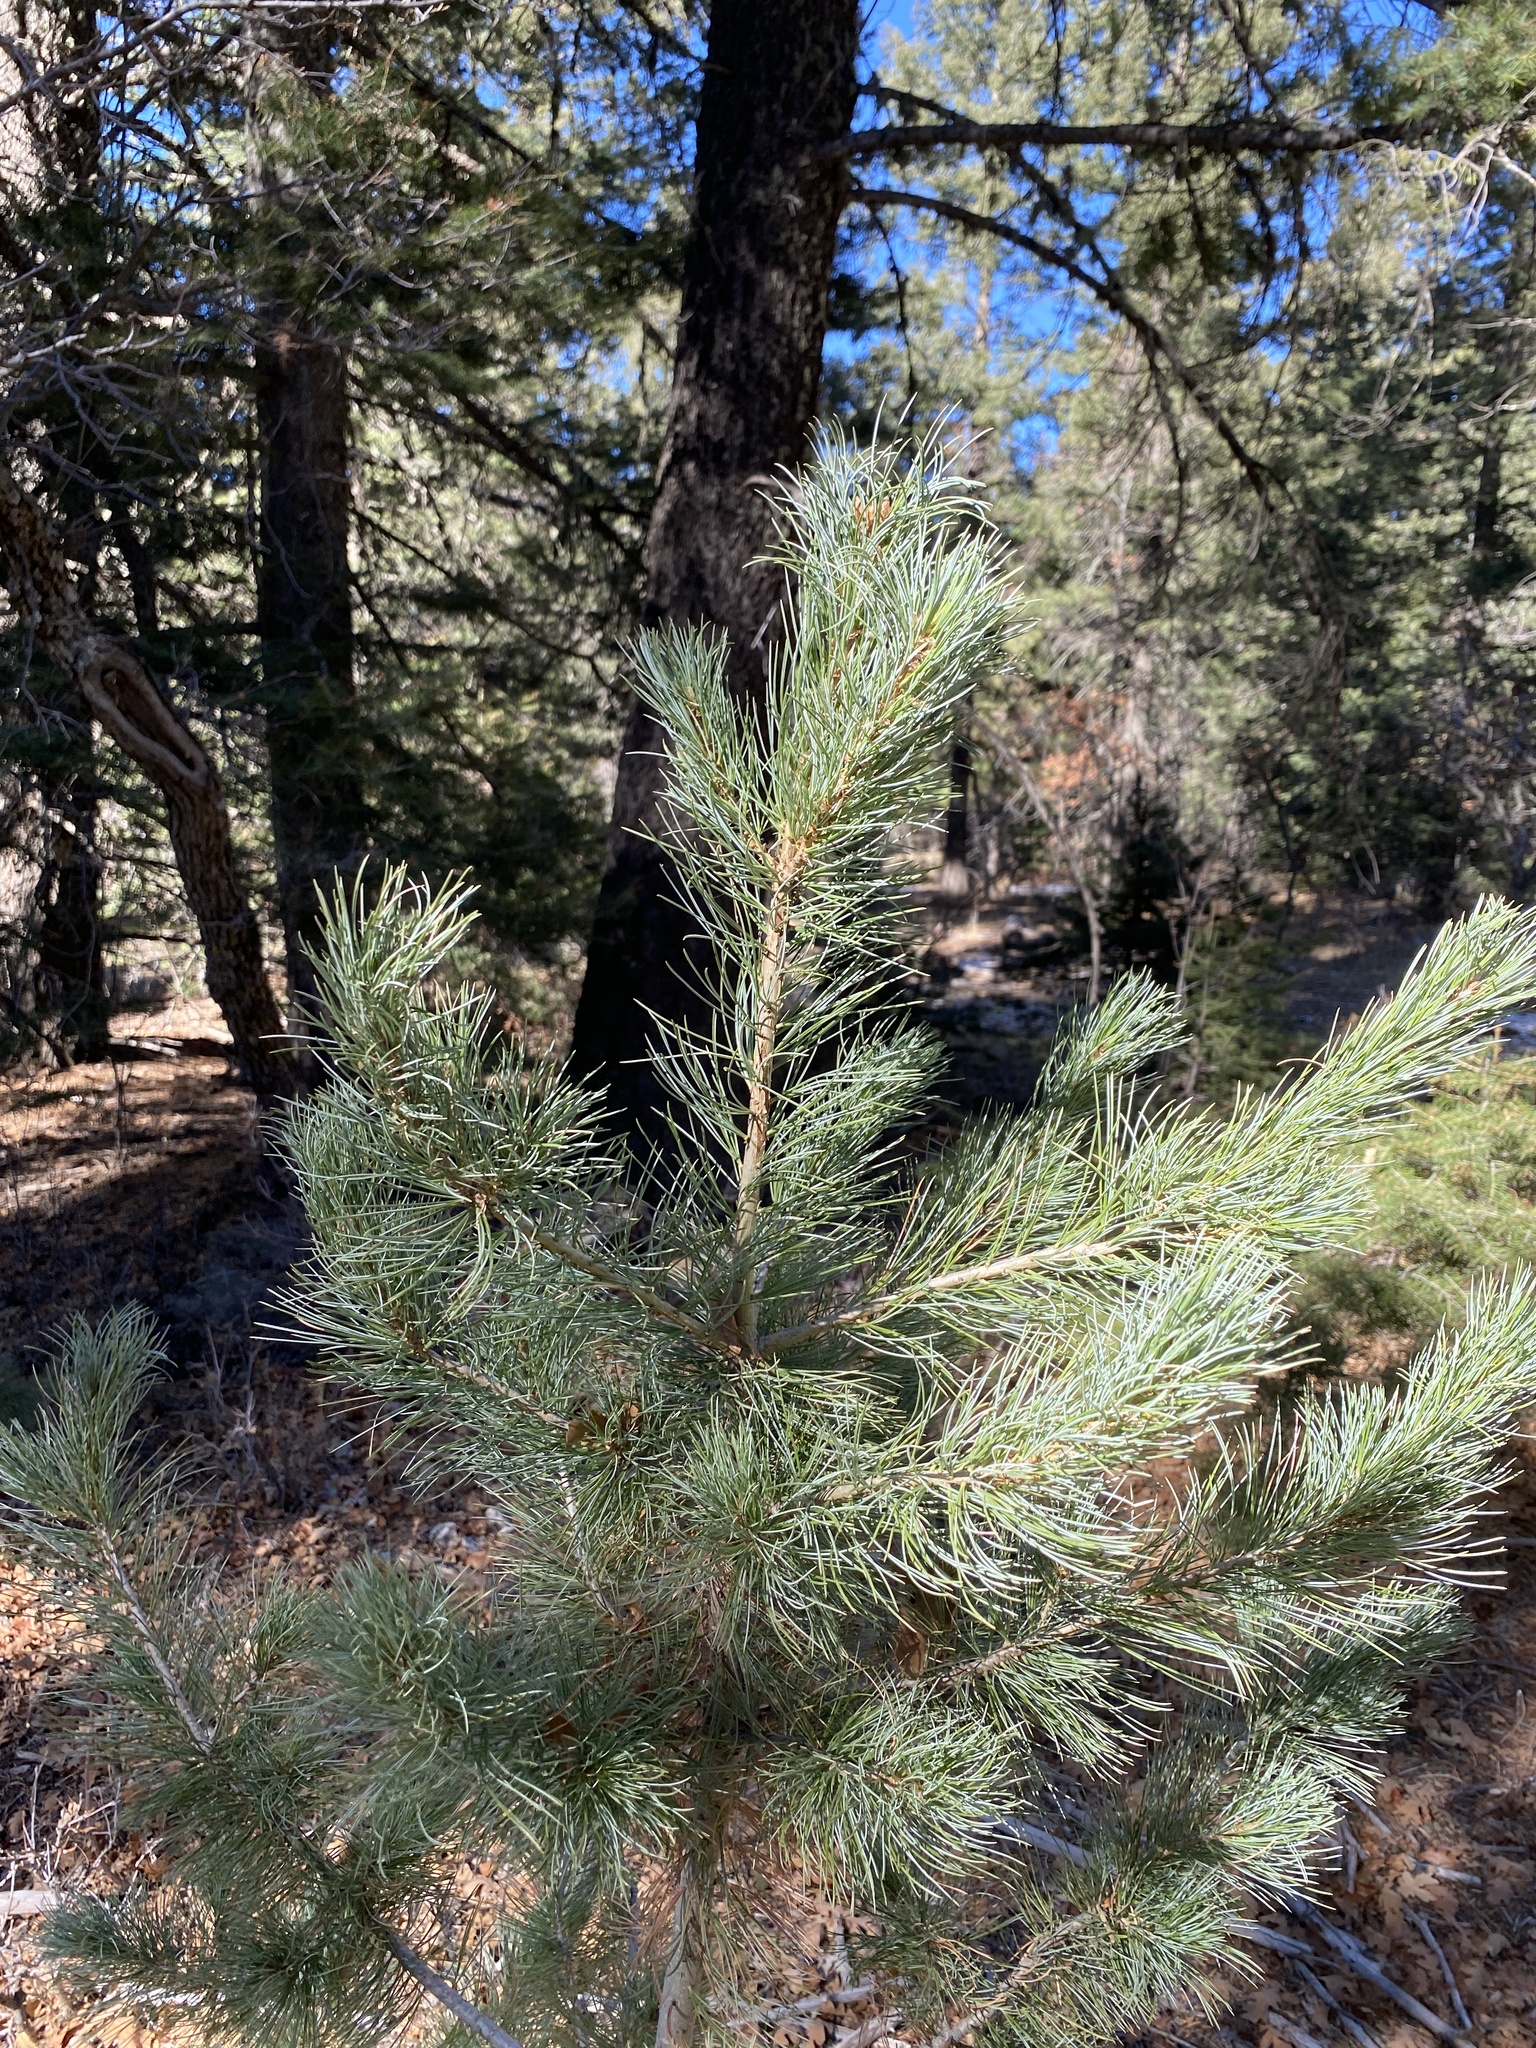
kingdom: Plantae
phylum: Tracheophyta
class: Pinopsida
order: Pinales
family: Pinaceae
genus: Pinus
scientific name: Pinus strobiformis
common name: Southwestern white pine
